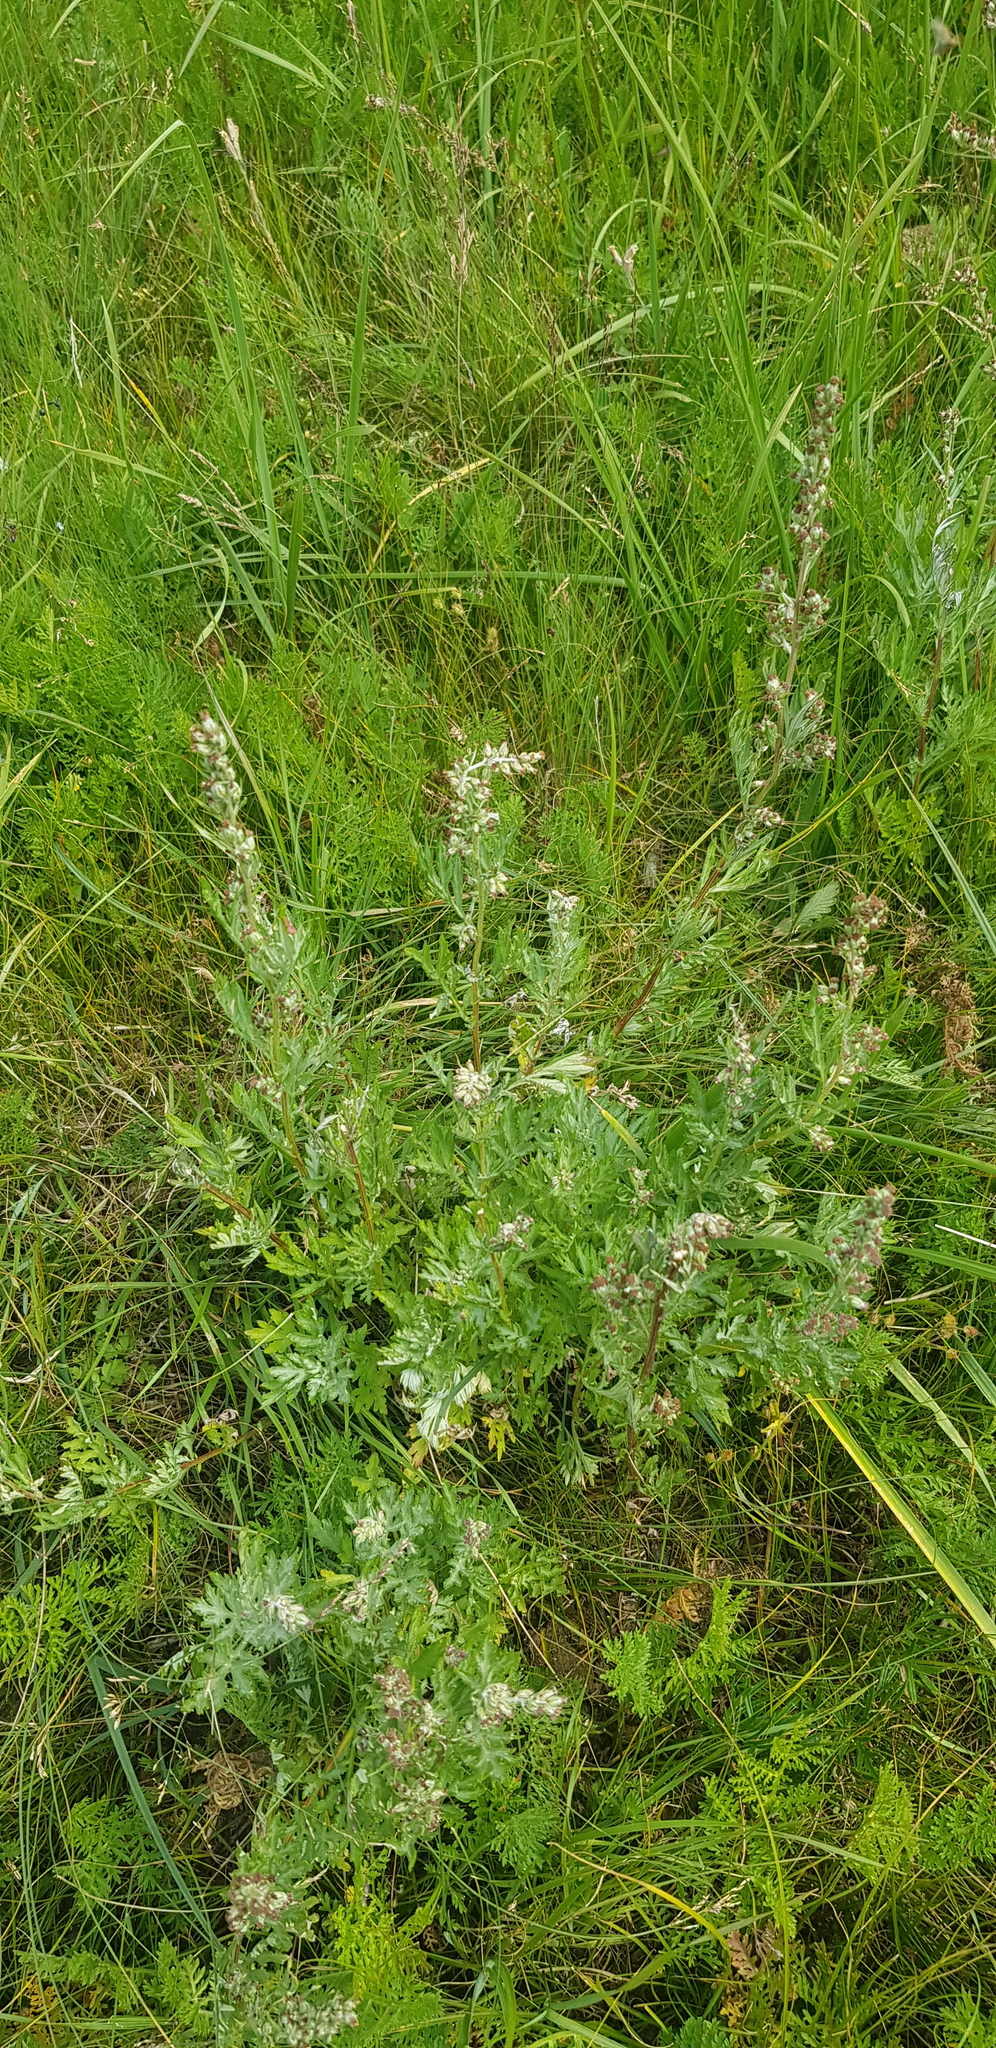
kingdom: Plantae
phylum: Tracheophyta
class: Magnoliopsida
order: Asterales
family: Asteraceae
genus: Artemisia
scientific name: Artemisia mongolica
